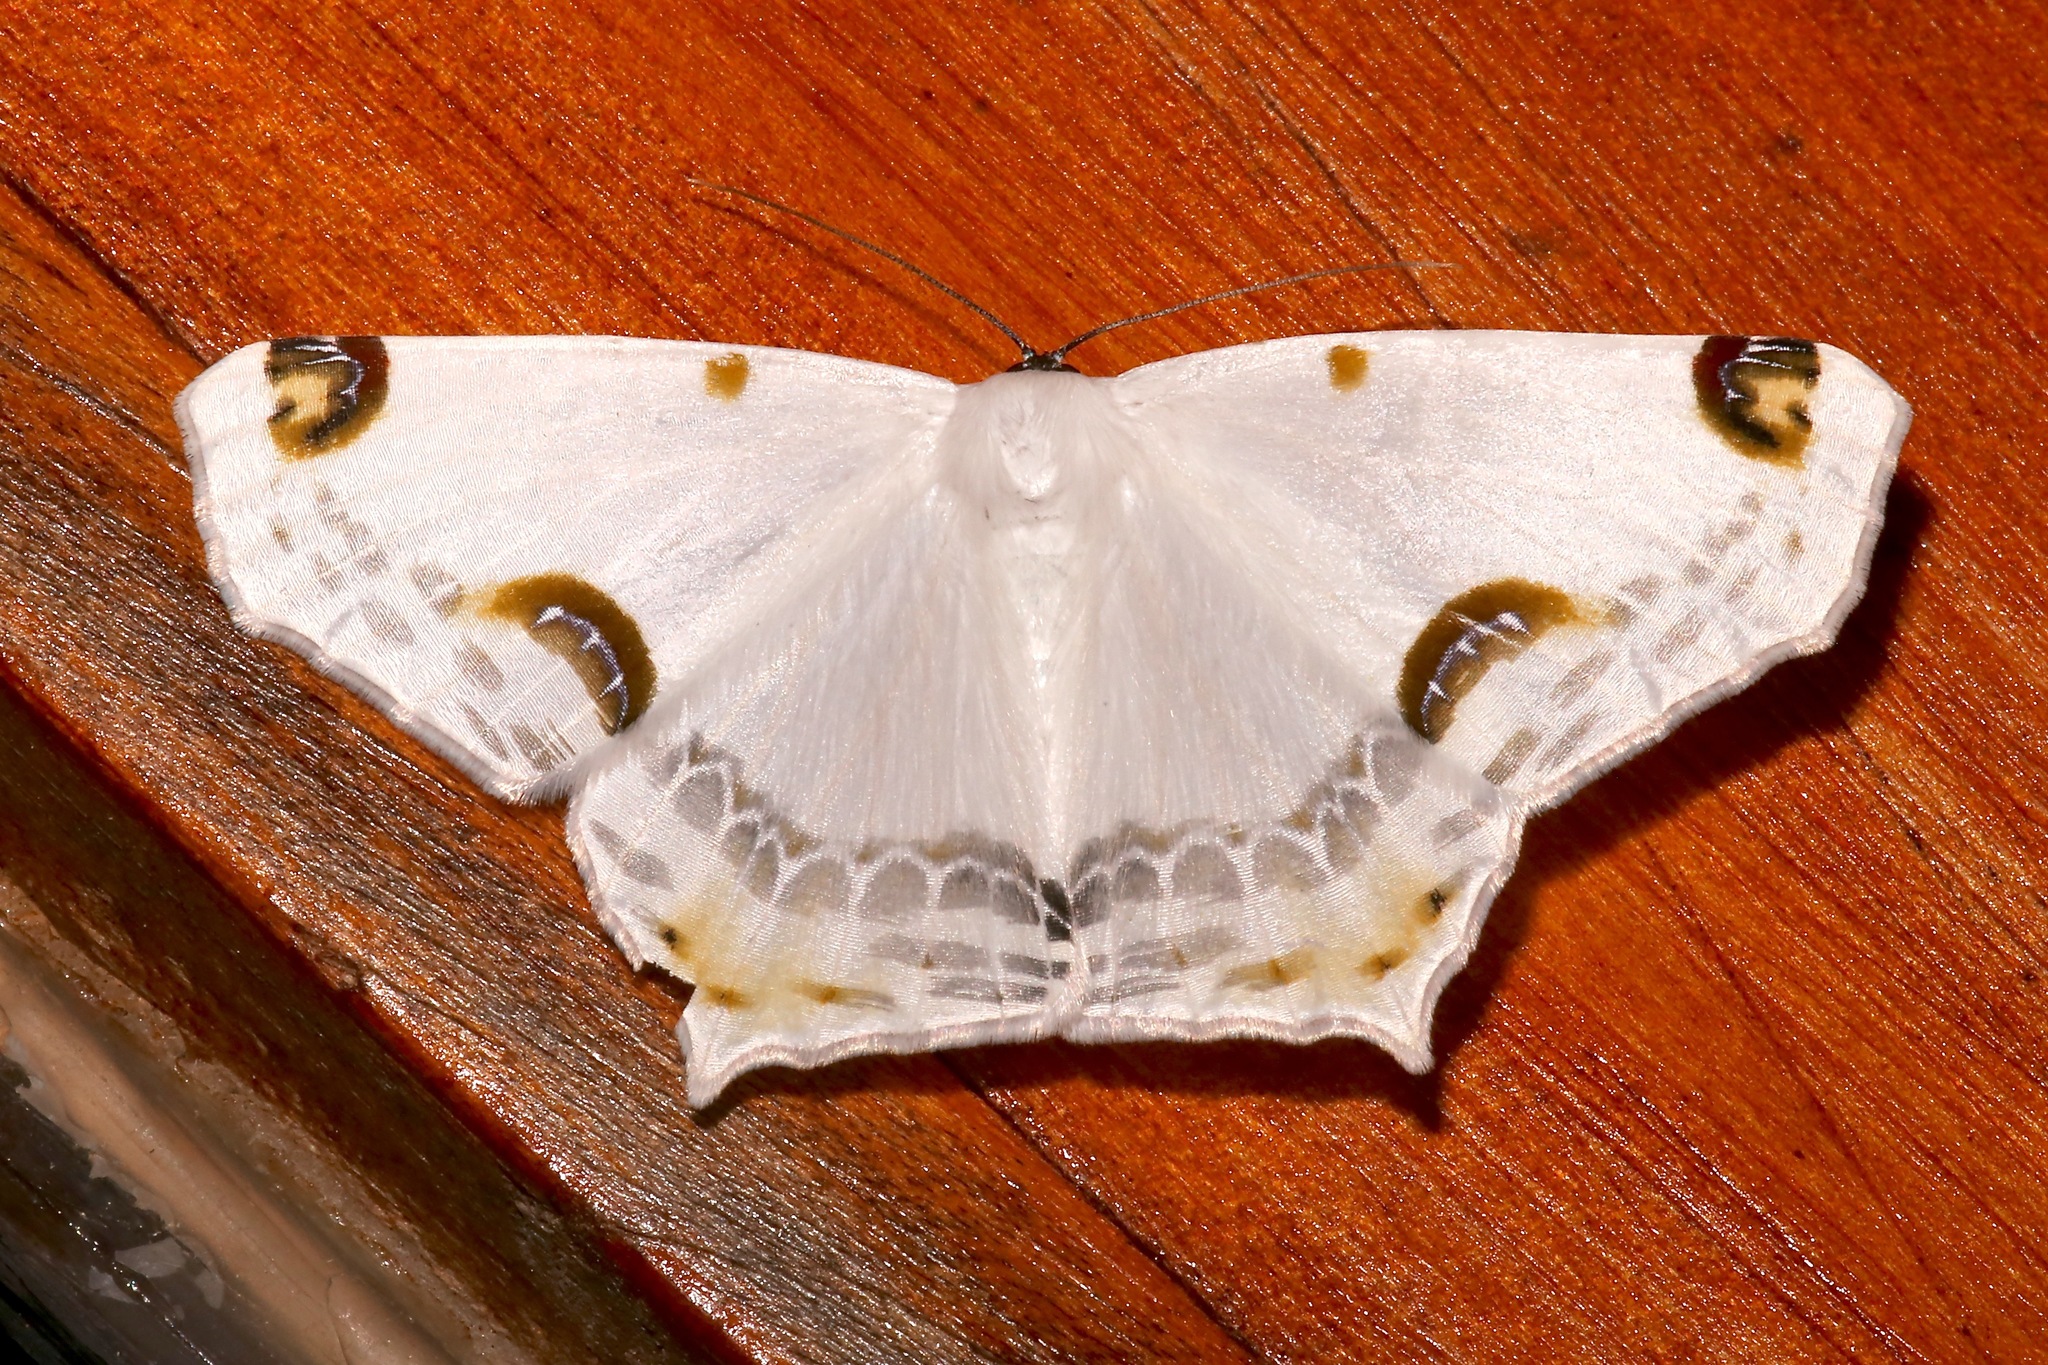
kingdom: Animalia
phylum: Arthropoda
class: Insecta
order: Lepidoptera
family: Geometridae
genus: Sericoptera
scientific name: Sericoptera mahometaria
